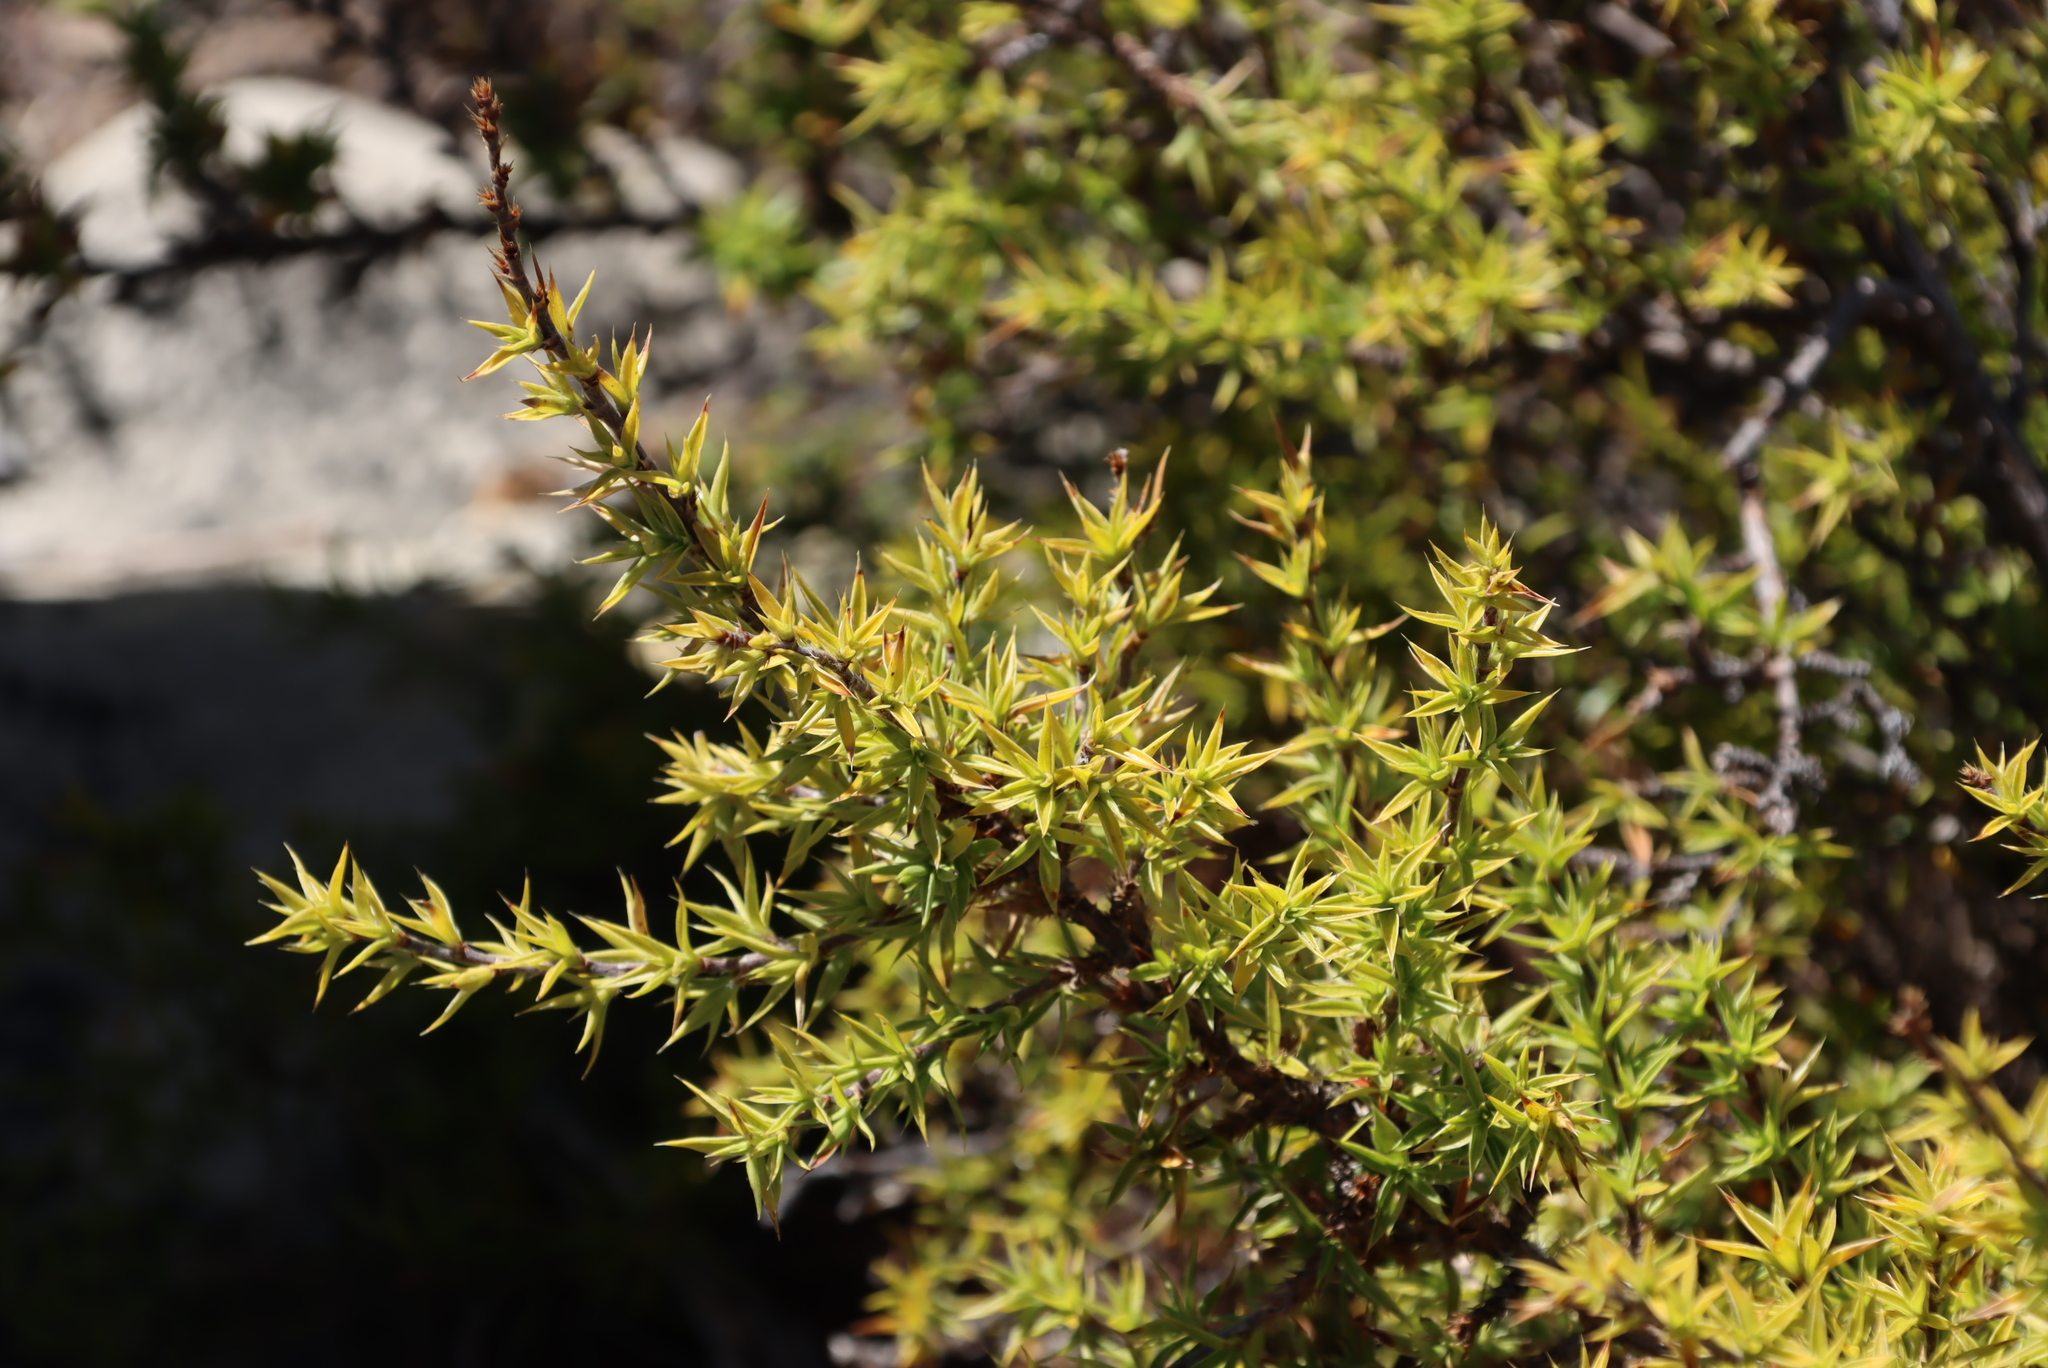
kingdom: Plantae
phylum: Tracheophyta
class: Magnoliopsida
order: Rosales
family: Rosaceae
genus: Cliffortia
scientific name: Cliffortia ruscifolia
